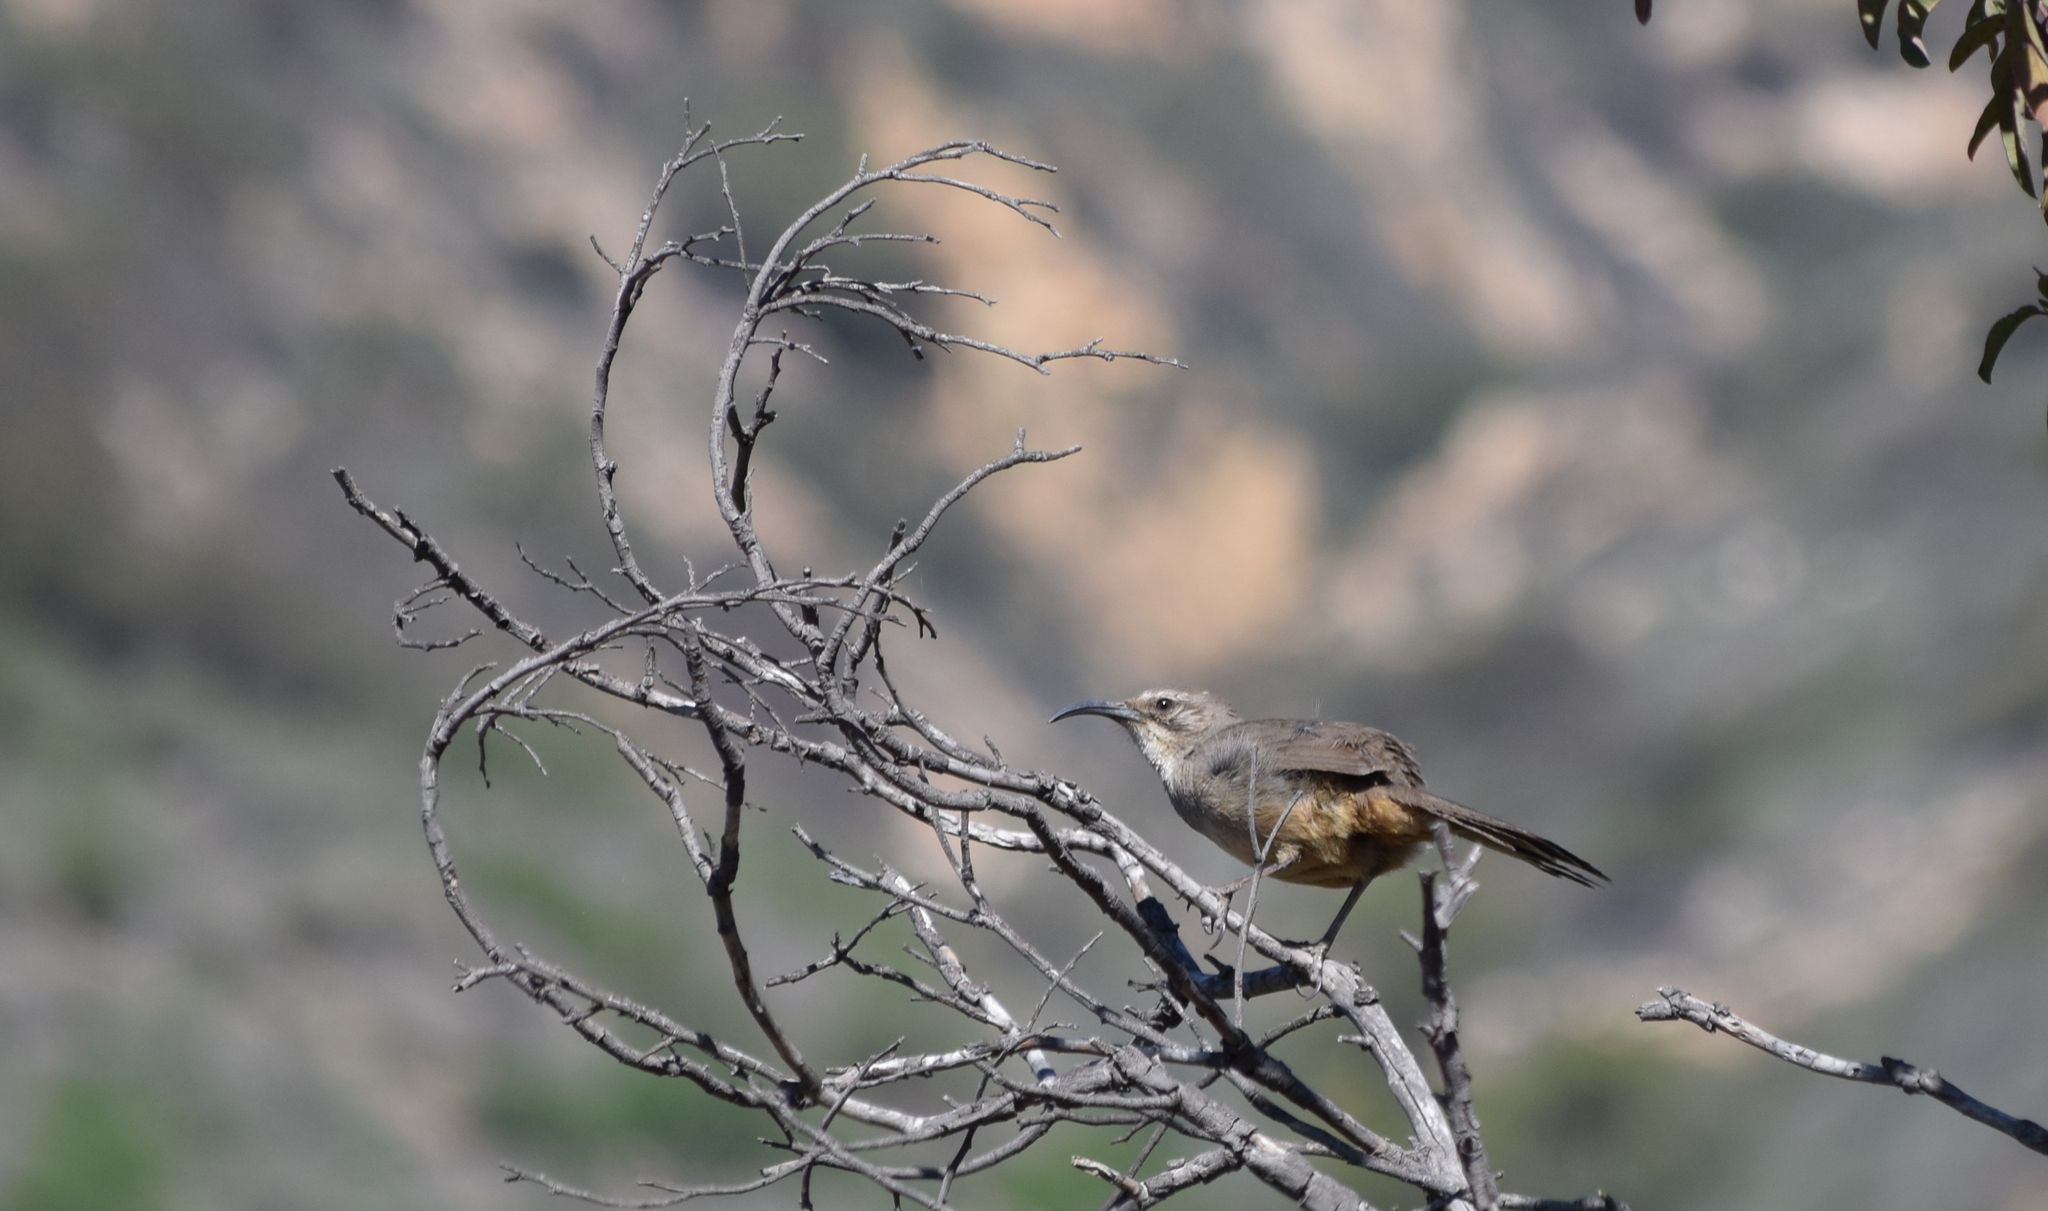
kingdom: Animalia
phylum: Chordata
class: Aves
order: Passeriformes
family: Mimidae
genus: Toxostoma
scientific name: Toxostoma redivivum
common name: California thrasher
